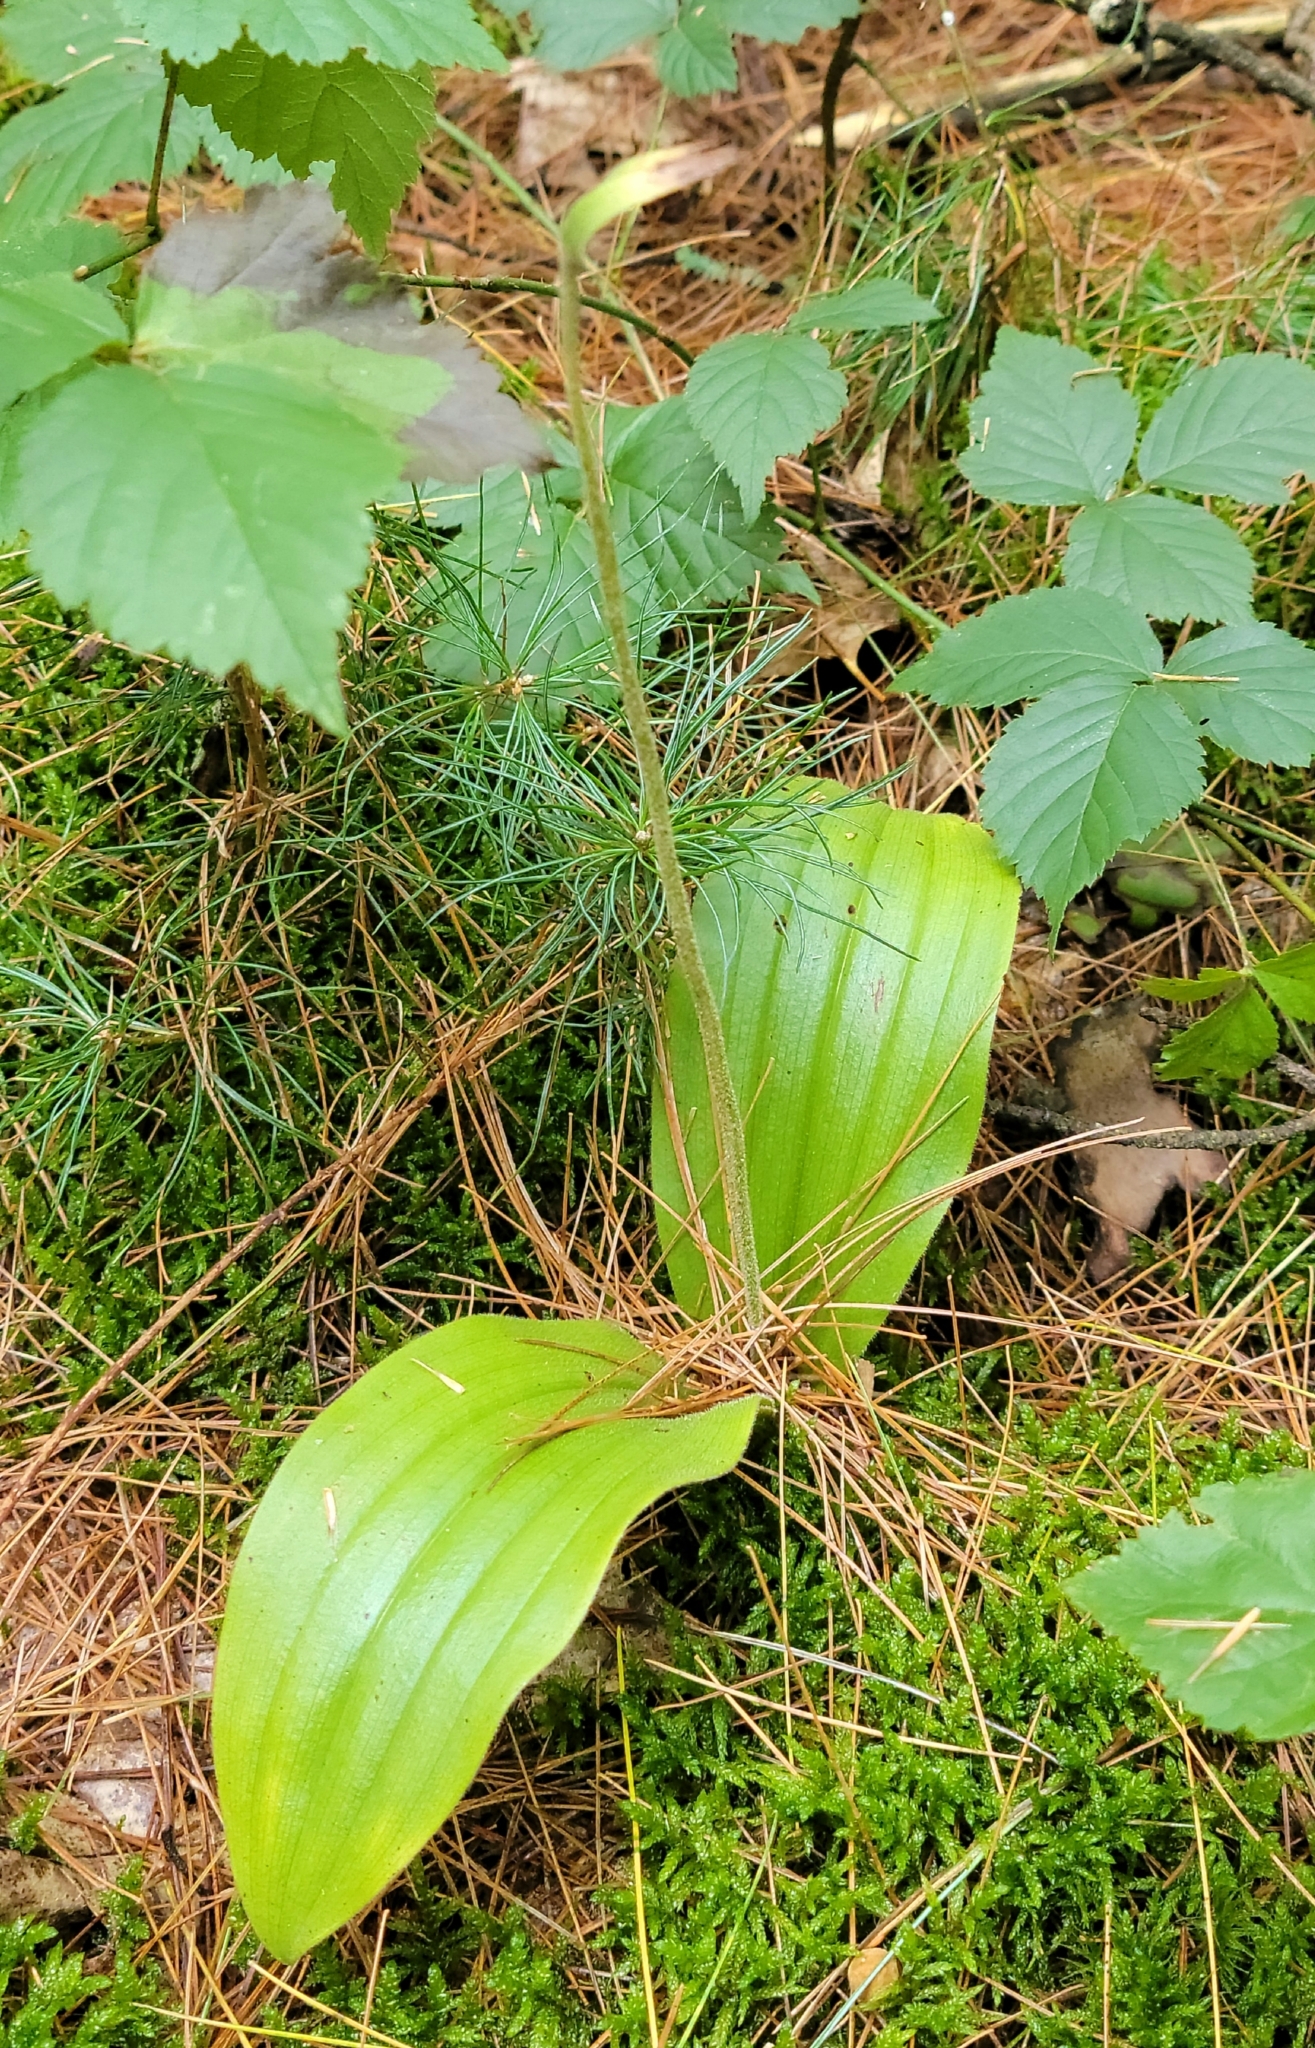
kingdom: Plantae
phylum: Tracheophyta
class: Liliopsida
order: Asparagales
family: Orchidaceae
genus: Cypripedium
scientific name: Cypripedium acaule
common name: Pink lady's-slipper
